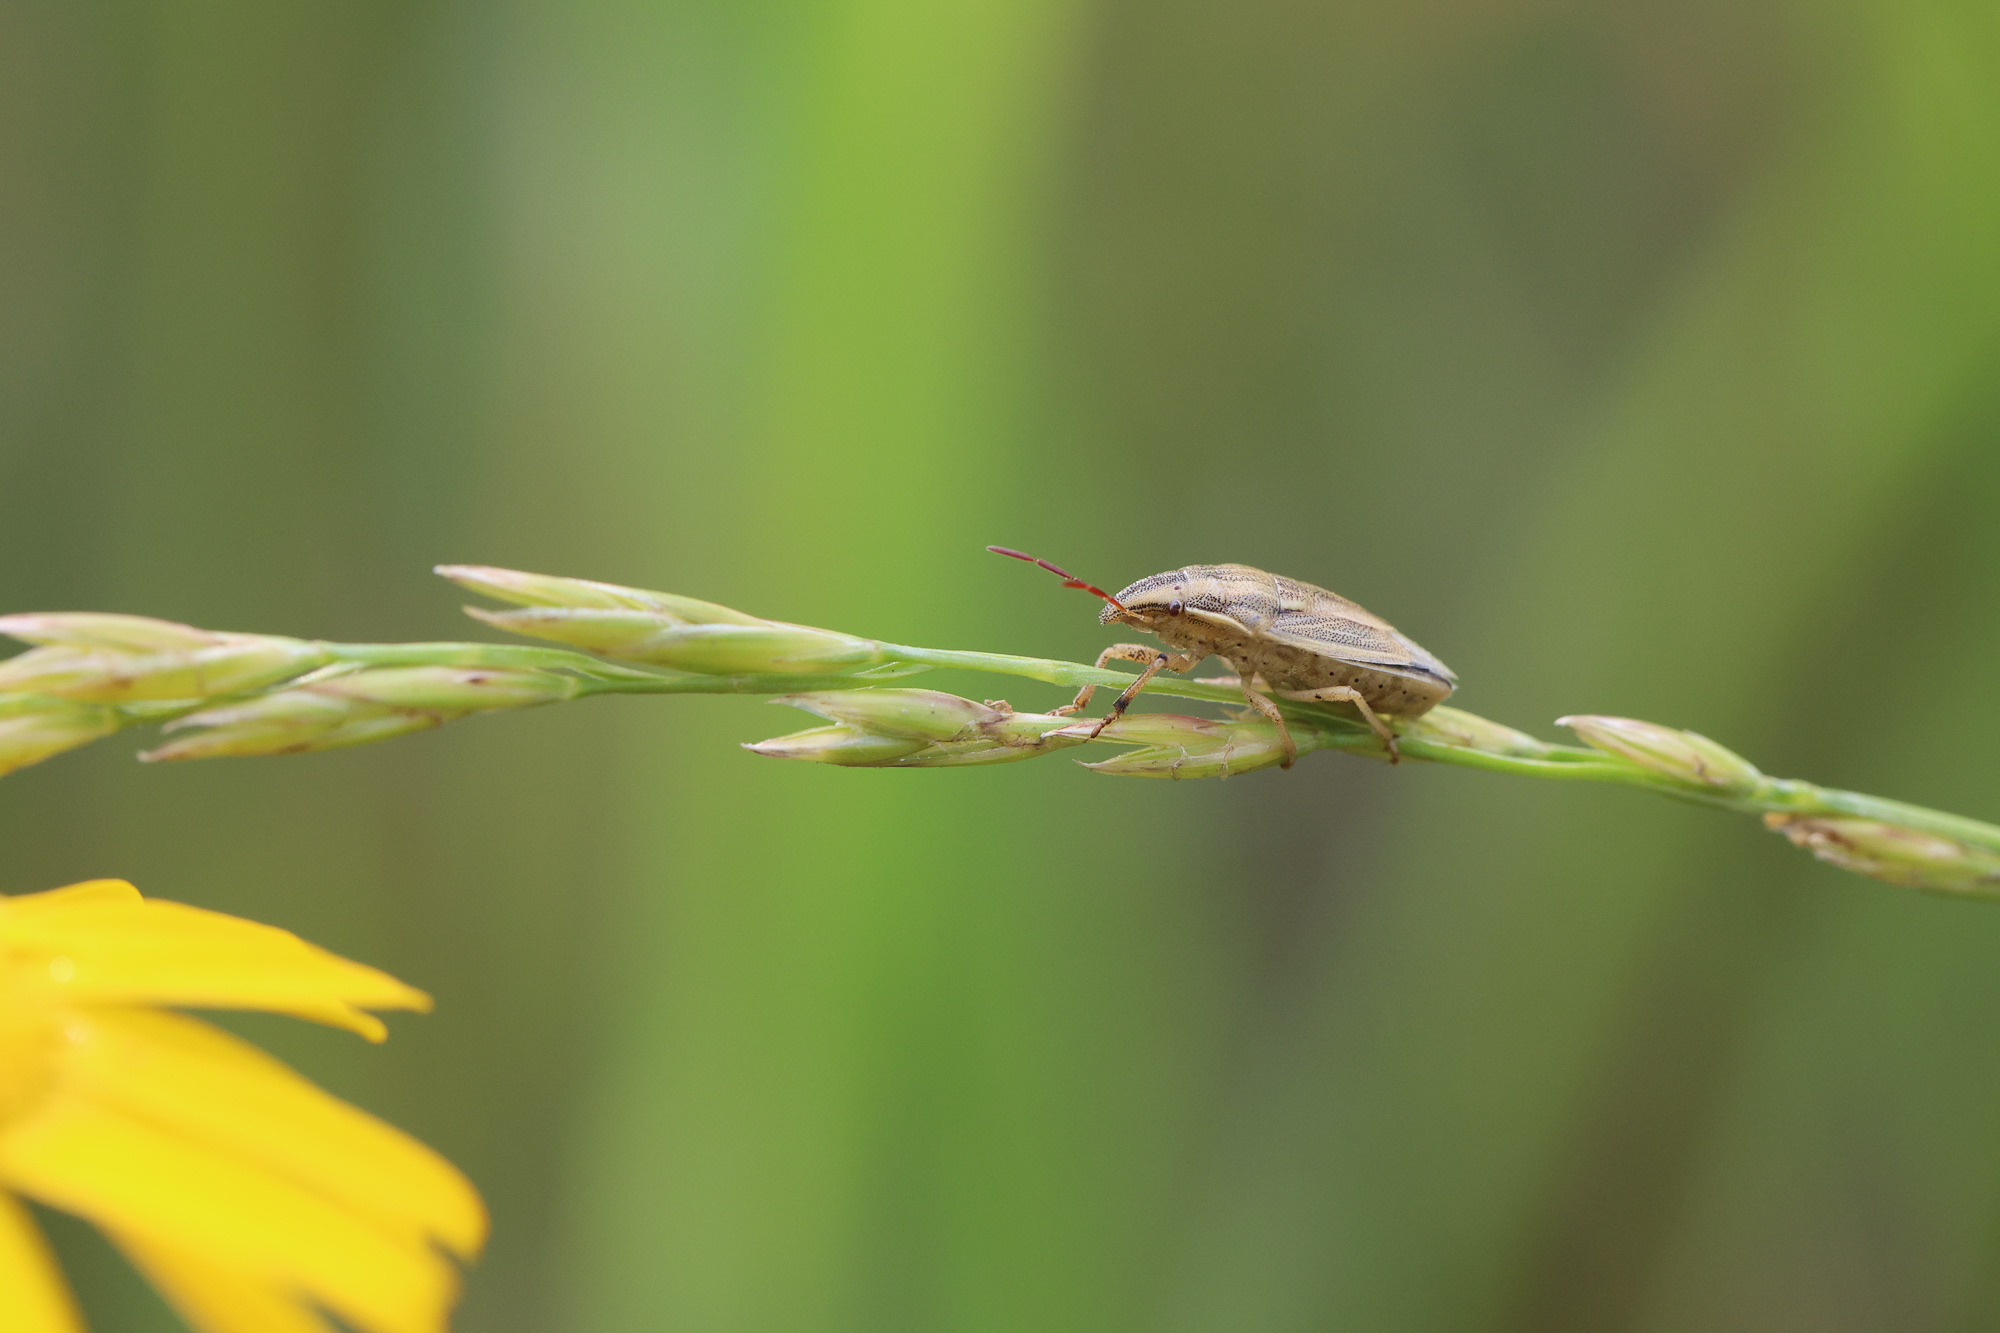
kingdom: Animalia
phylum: Arthropoda
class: Insecta
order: Hemiptera
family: Pentatomidae
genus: Aelia
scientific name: Aelia acuminata
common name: Bishop's mitre
